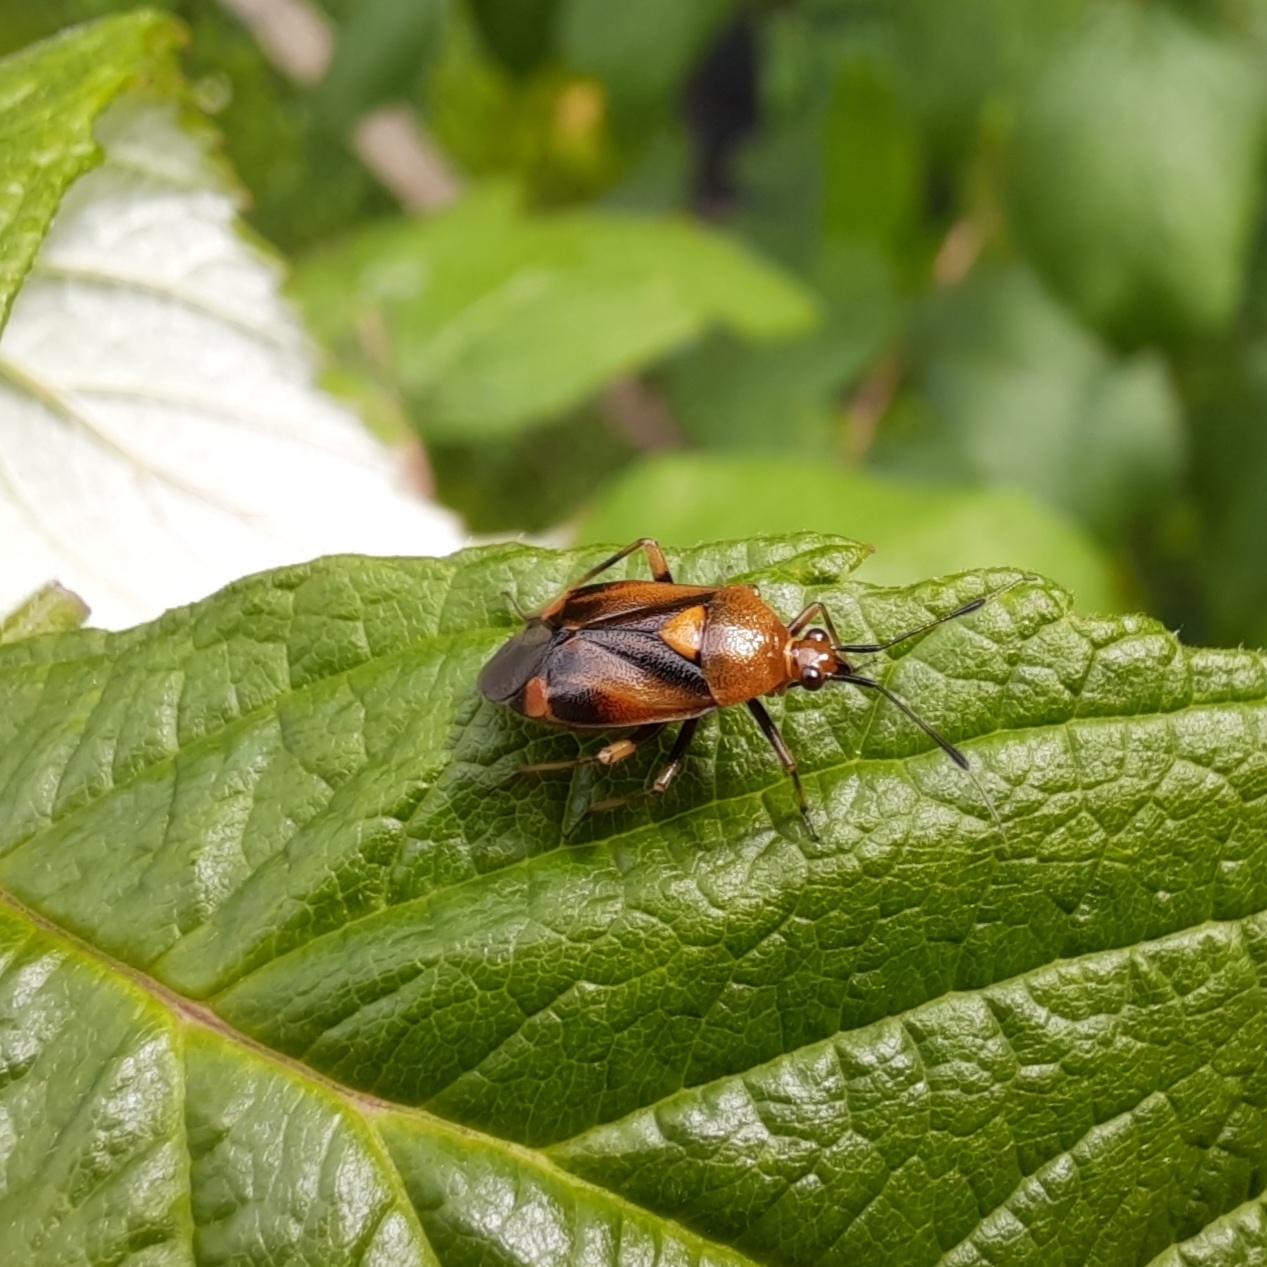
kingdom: Animalia
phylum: Arthropoda
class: Insecta
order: Hemiptera
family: Miridae
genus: Deraeocoris
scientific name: Deraeocoris ruber
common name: Plant bug
